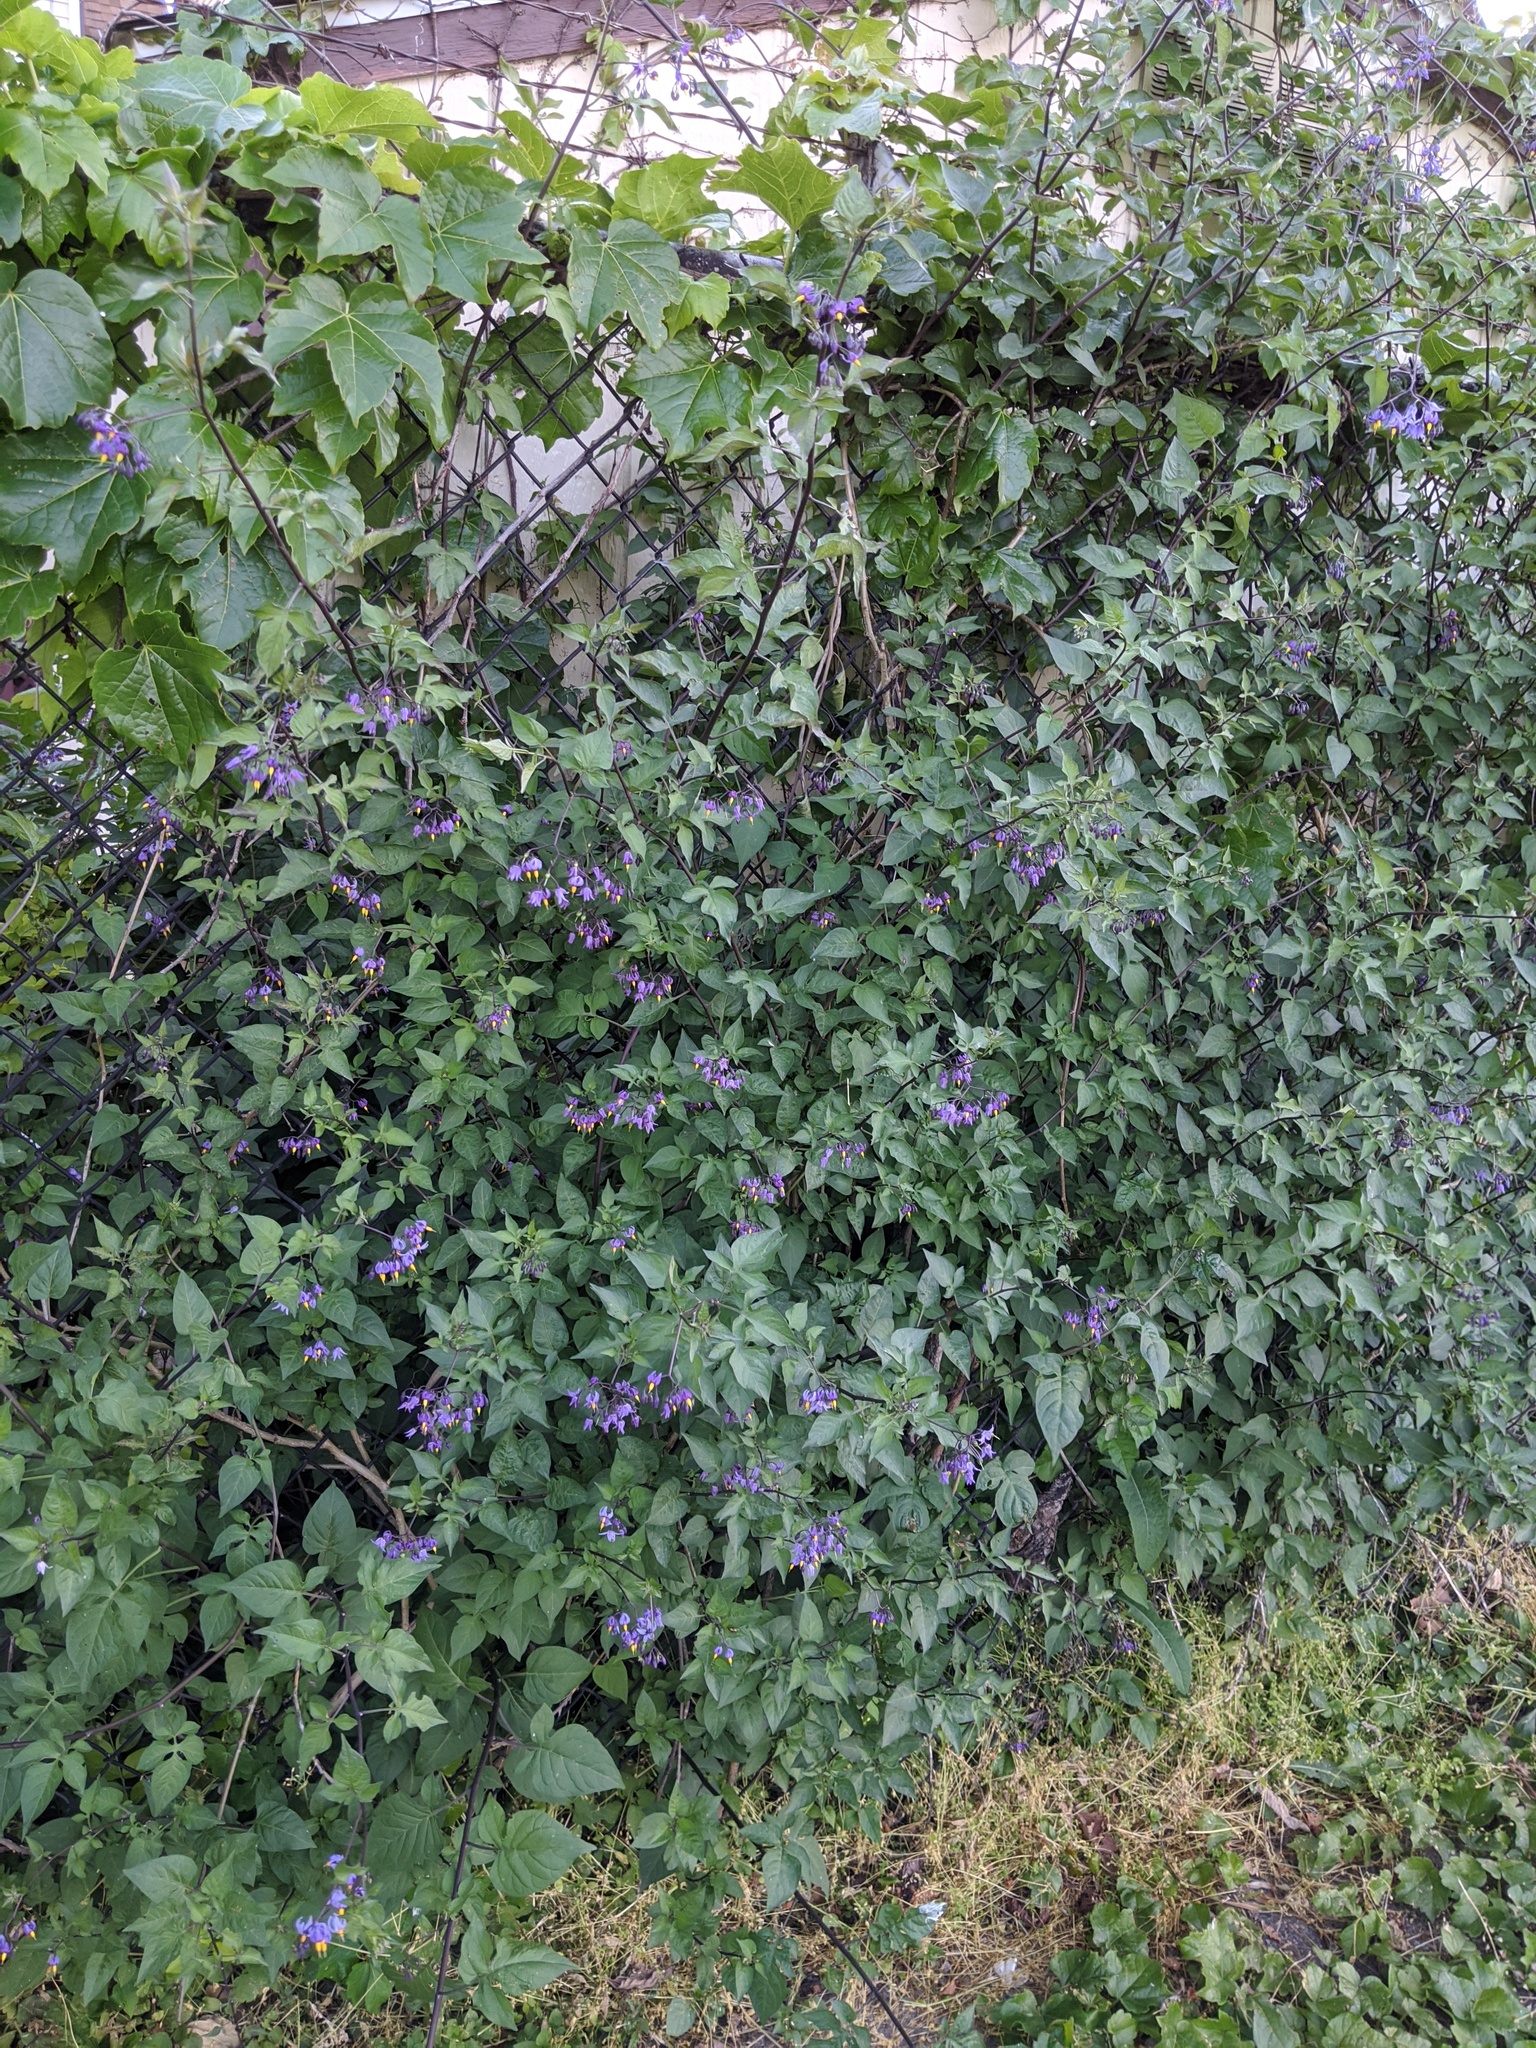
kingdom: Plantae
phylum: Tracheophyta
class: Magnoliopsida
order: Solanales
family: Solanaceae
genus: Solanum
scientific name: Solanum dulcamara
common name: Climbing nightshade
